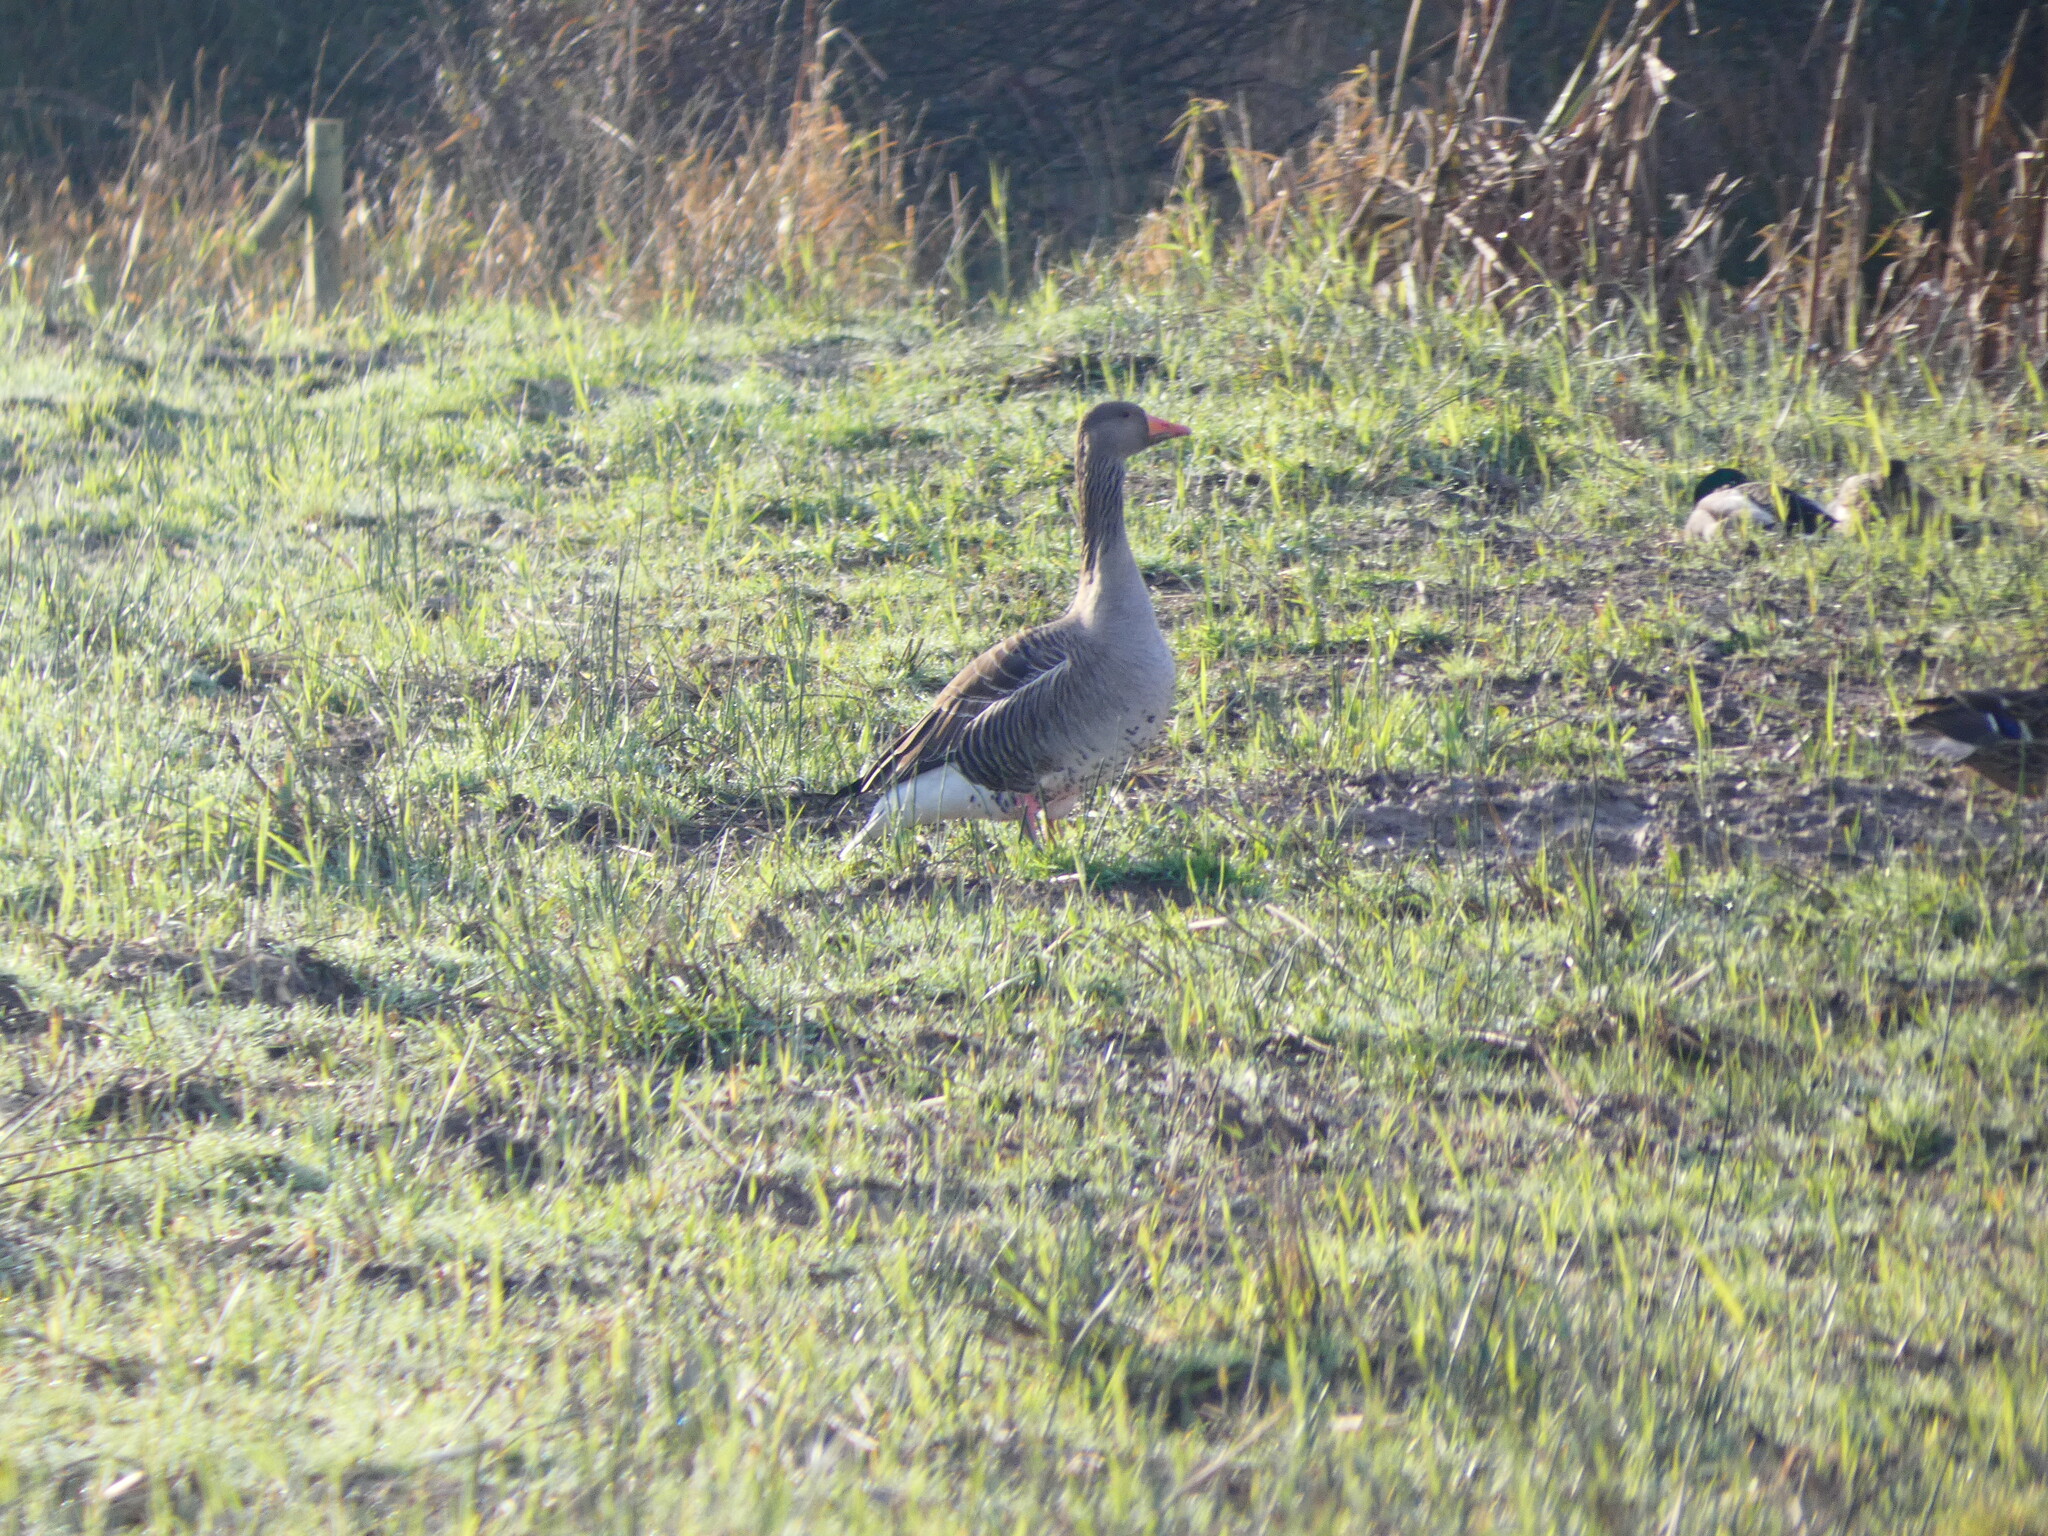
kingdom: Animalia
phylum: Chordata
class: Aves
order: Anseriformes
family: Anatidae
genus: Anser
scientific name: Anser anser
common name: Greylag goose
